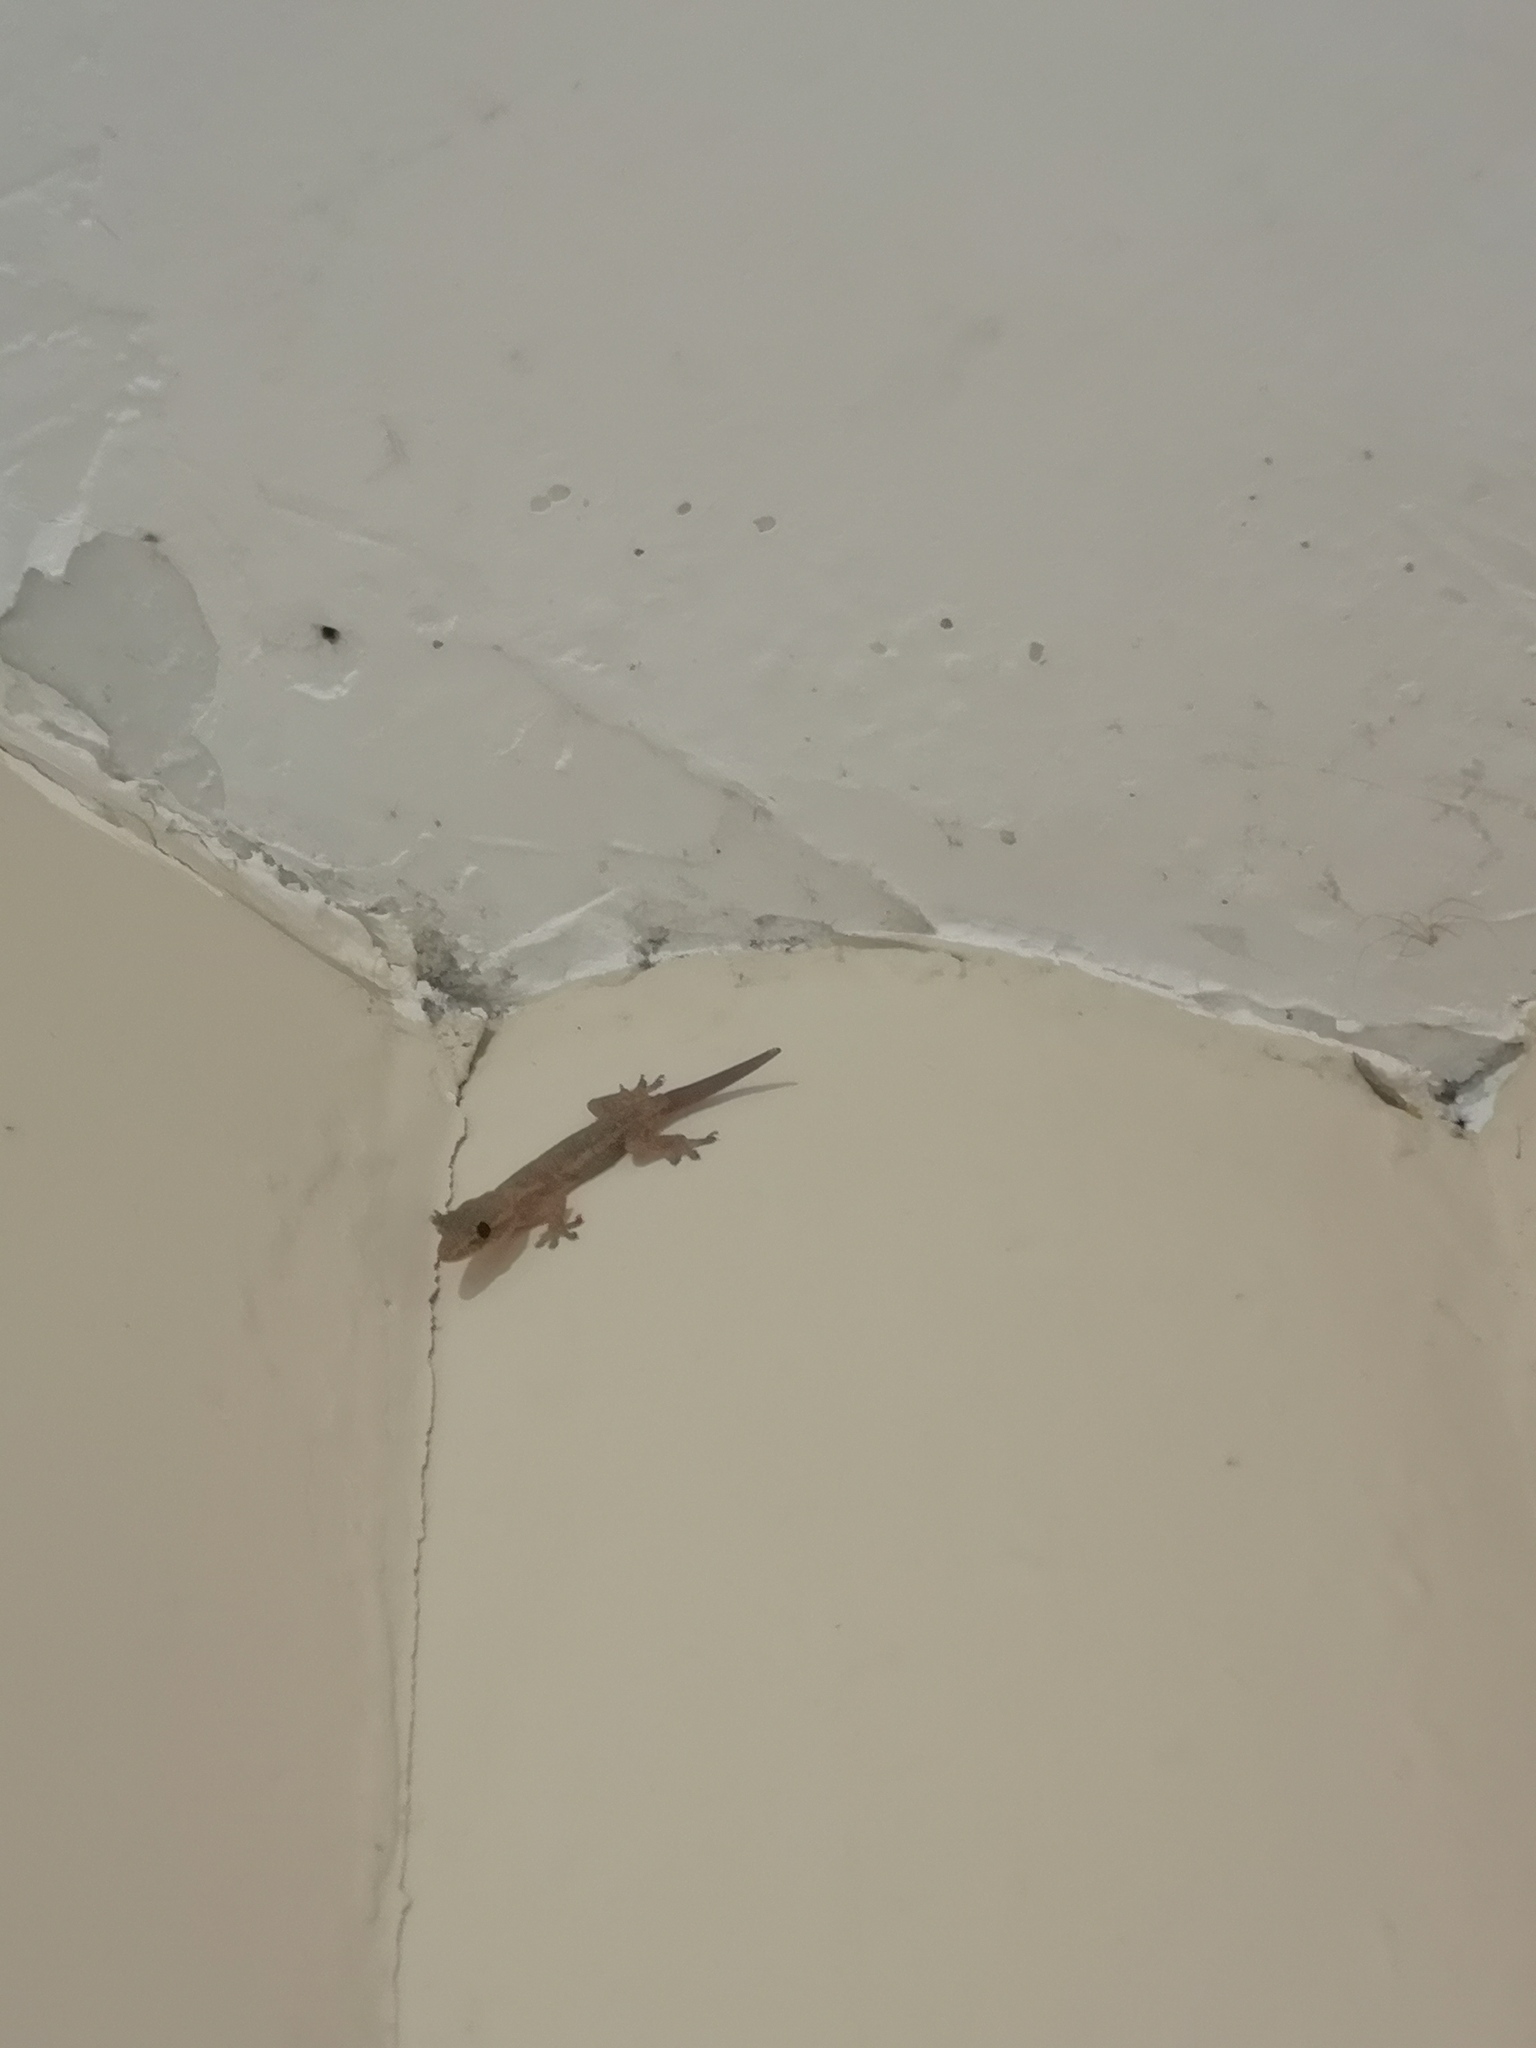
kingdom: Animalia
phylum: Chordata
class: Squamata
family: Gekkonidae
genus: Hemidactylus
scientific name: Hemidactylus frenatus
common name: Common house gecko
